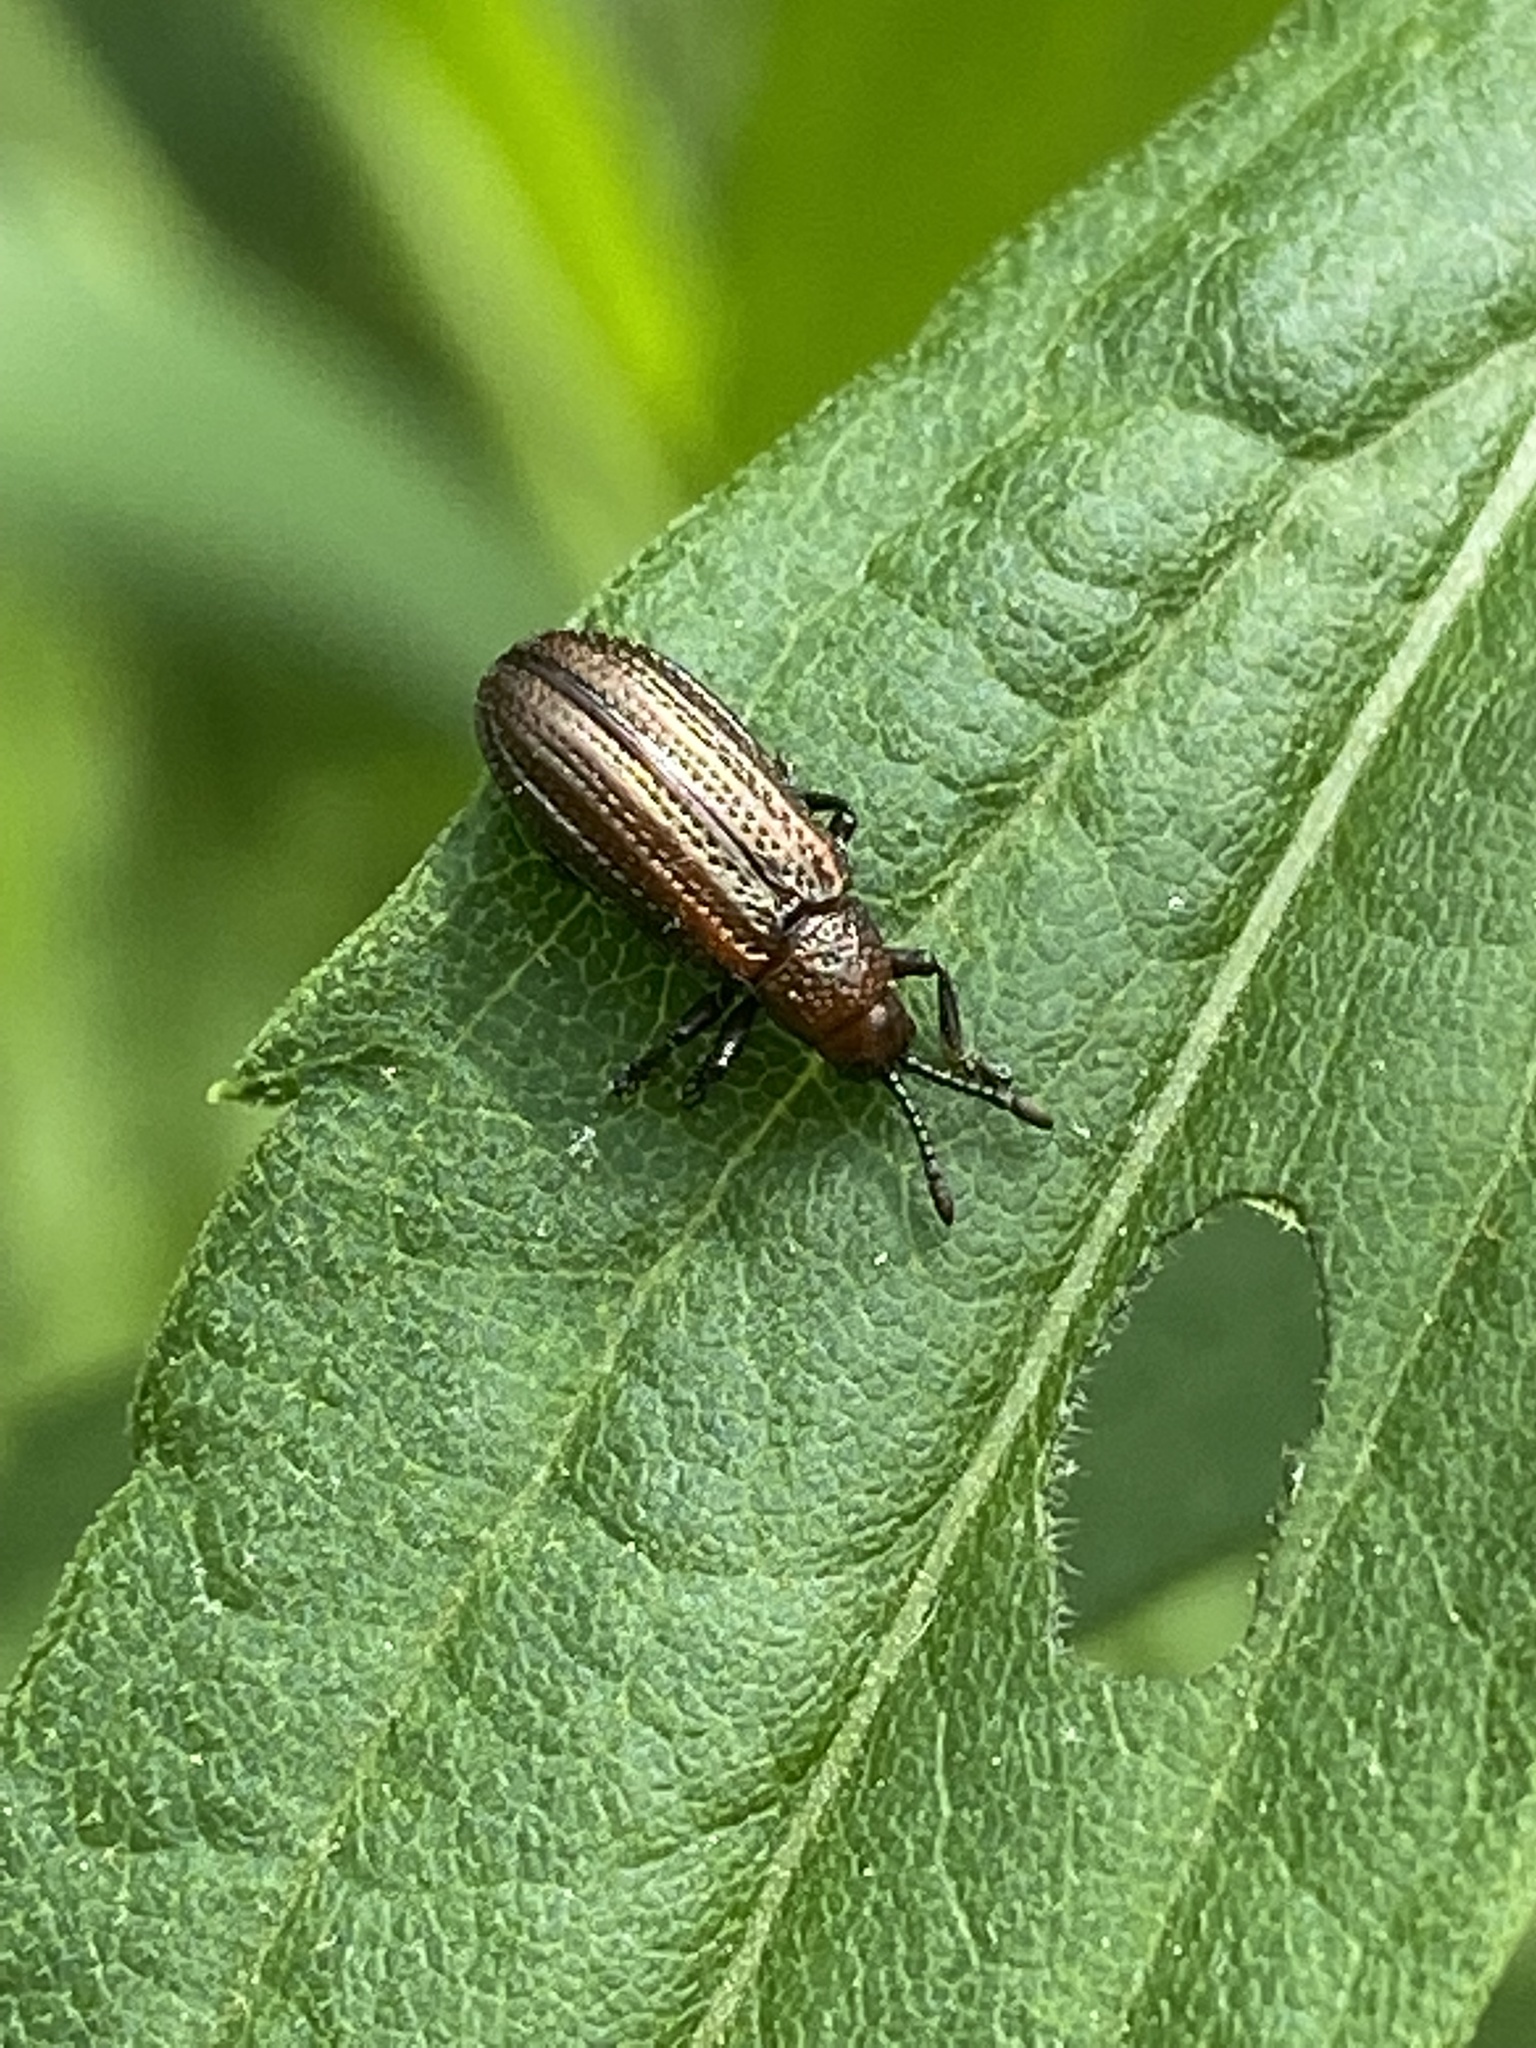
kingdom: Animalia
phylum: Arthropoda
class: Insecta
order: Coleoptera
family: Chrysomelidae
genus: Microrhopala
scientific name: Microrhopala vittata
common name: Goldenrod leaf miner beetle
